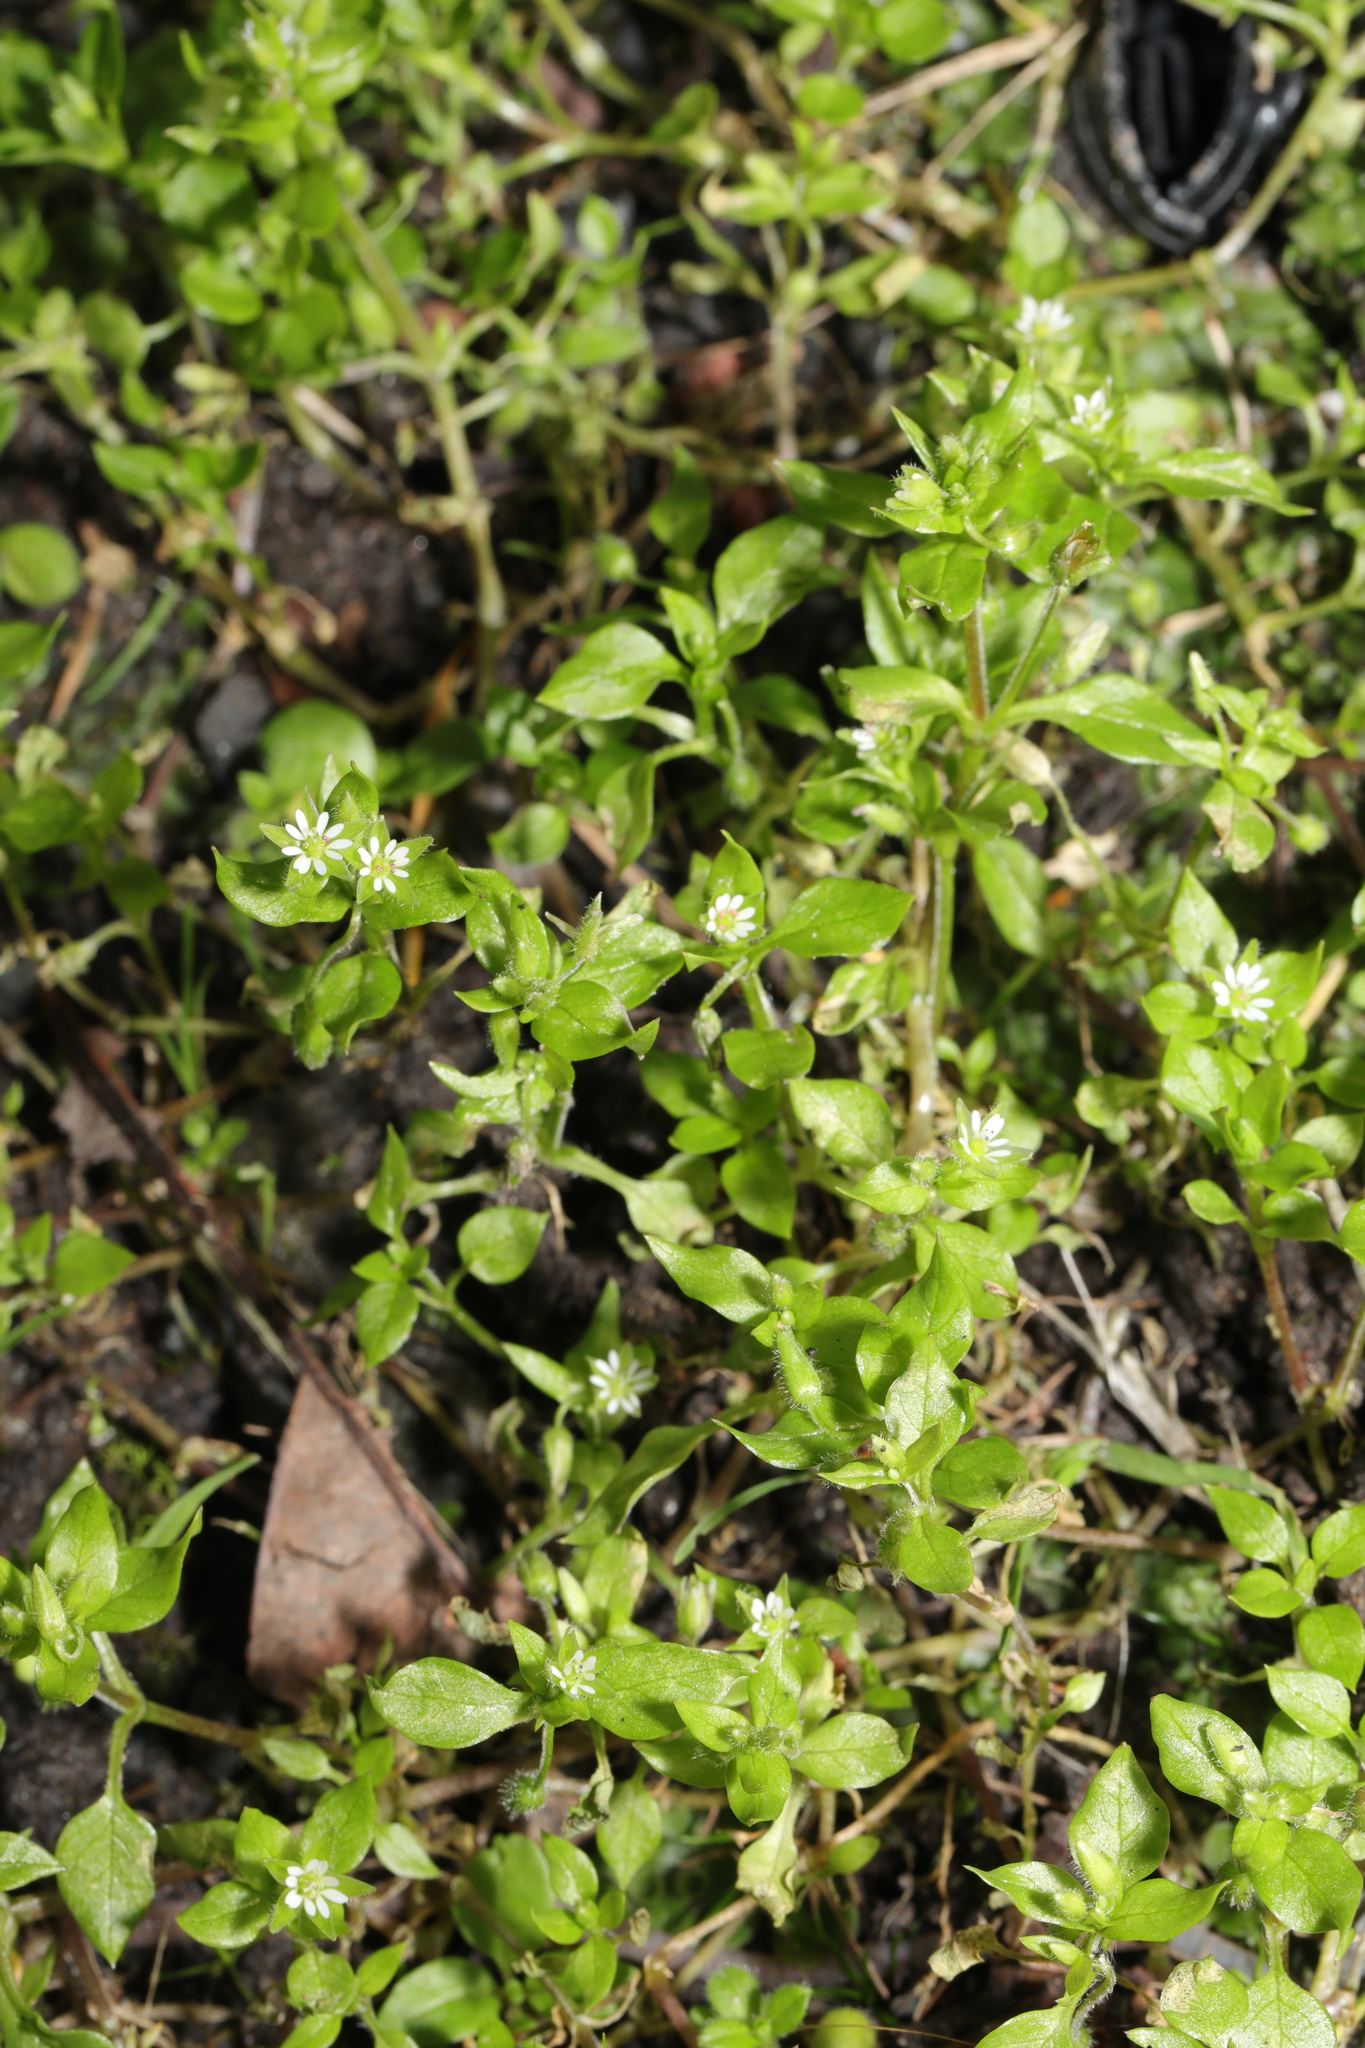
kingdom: Plantae
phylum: Tracheophyta
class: Magnoliopsida
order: Caryophyllales
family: Caryophyllaceae
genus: Stellaria
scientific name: Stellaria media
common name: Common chickweed
